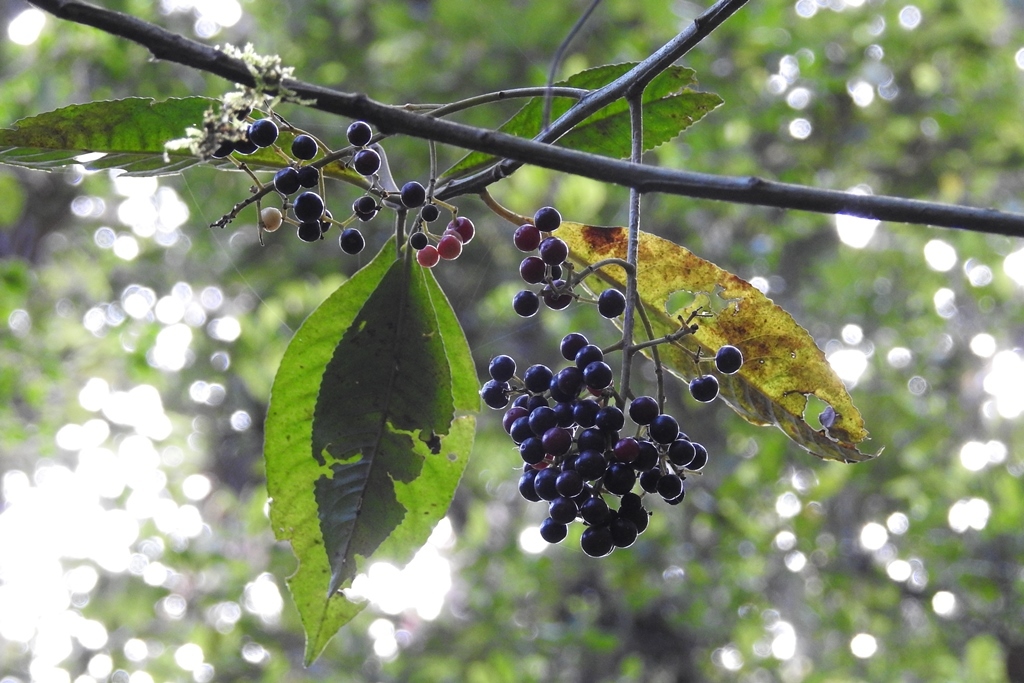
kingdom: Plantae
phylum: Tracheophyta
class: Magnoliopsida
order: Ericales
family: Primulaceae
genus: Parathesis
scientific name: Parathesis leptopa
